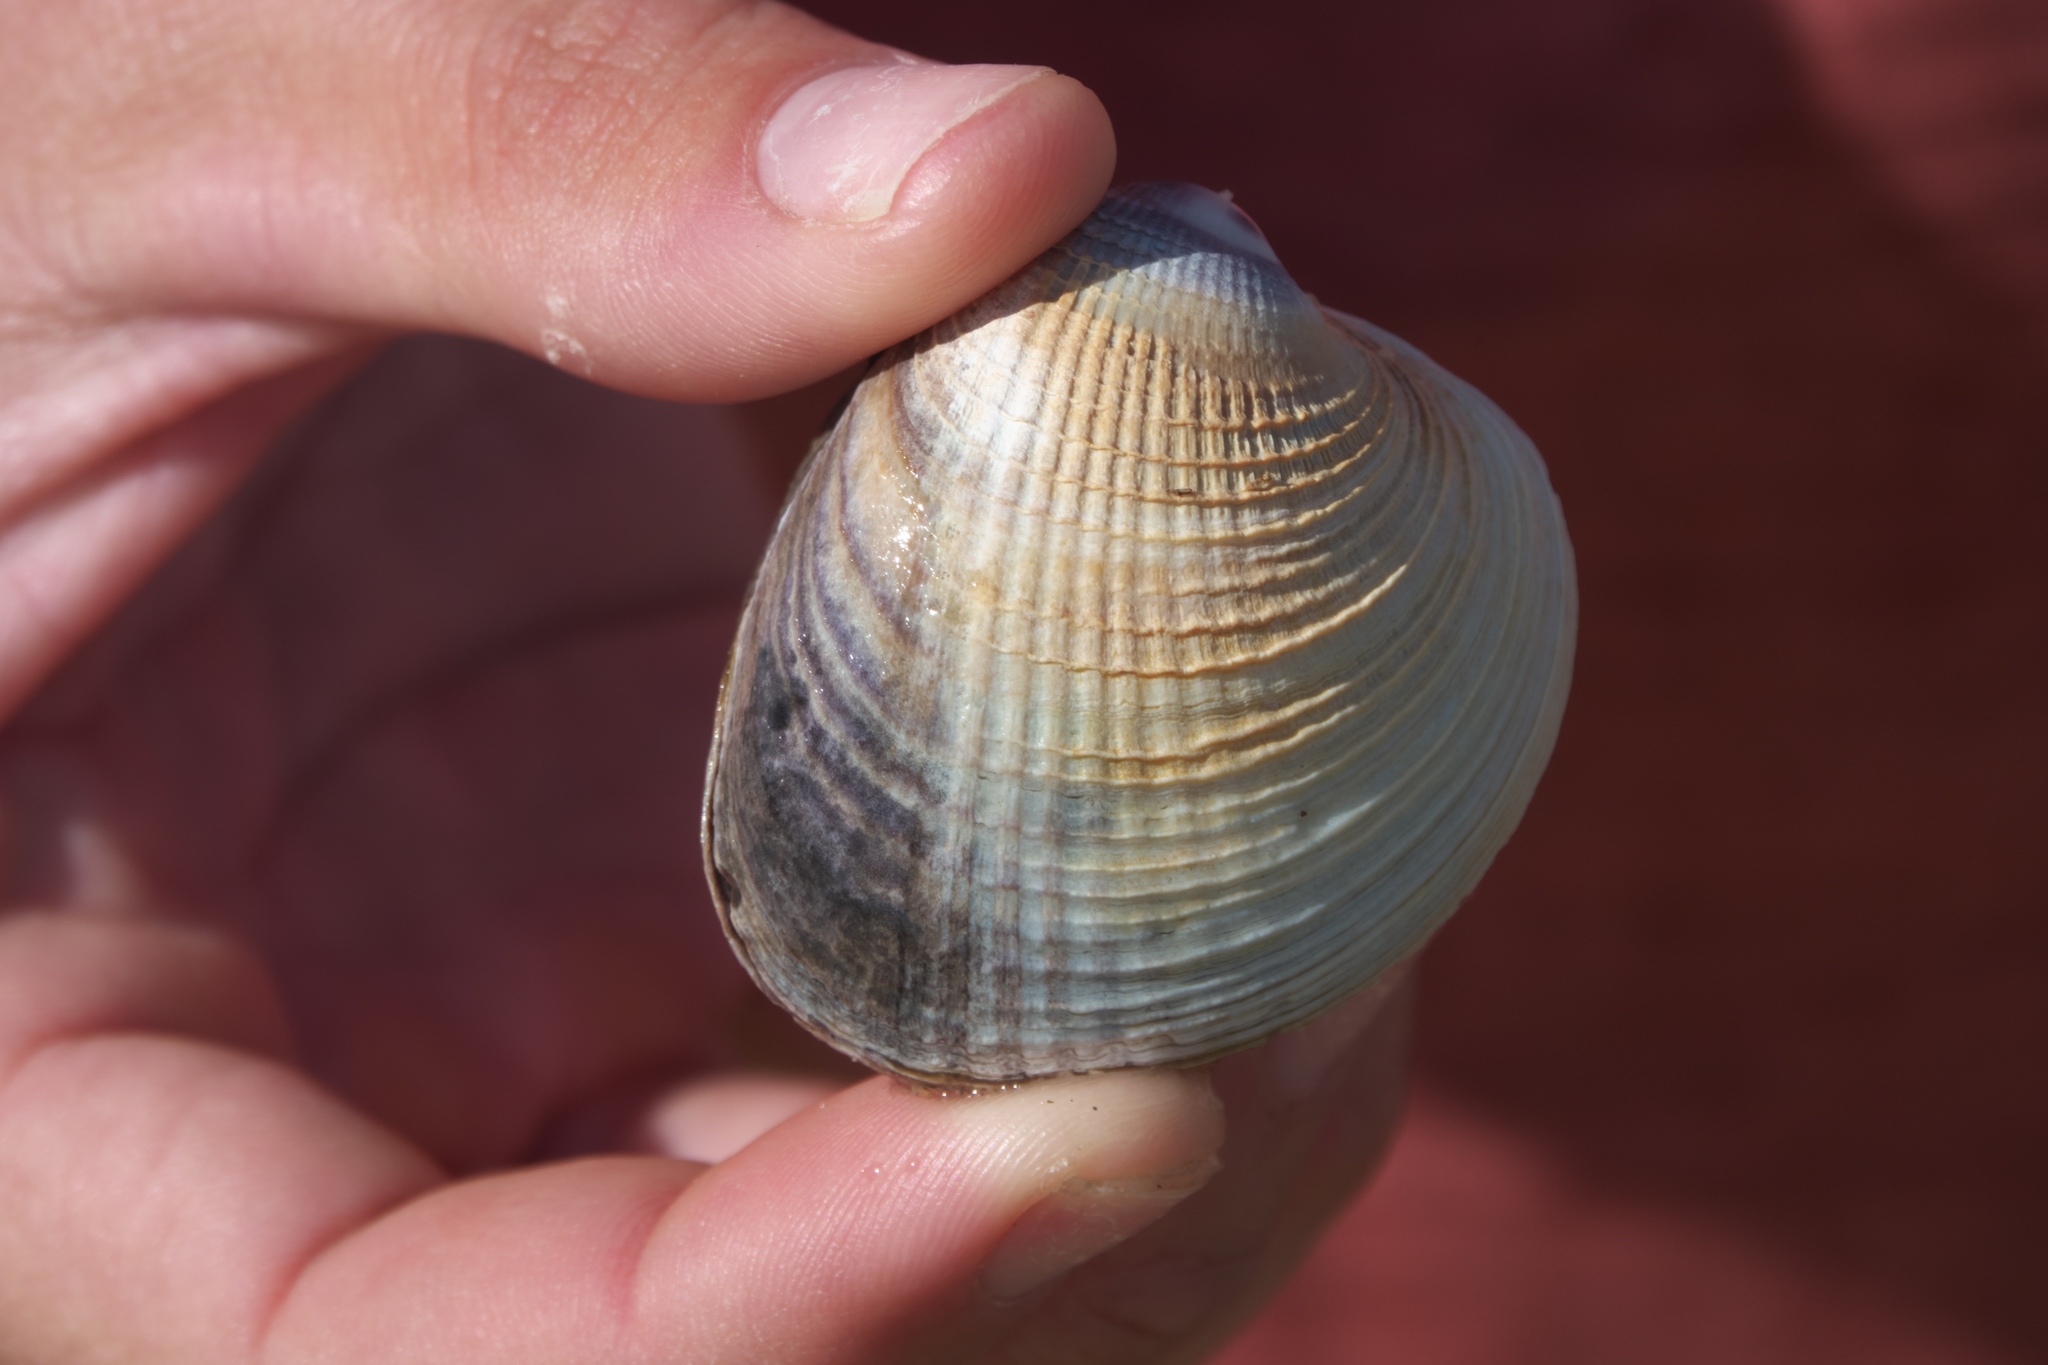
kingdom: Animalia
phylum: Mollusca
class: Bivalvia
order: Venerida
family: Veneridae
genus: Austrovenus
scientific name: Austrovenus stutchburyi
